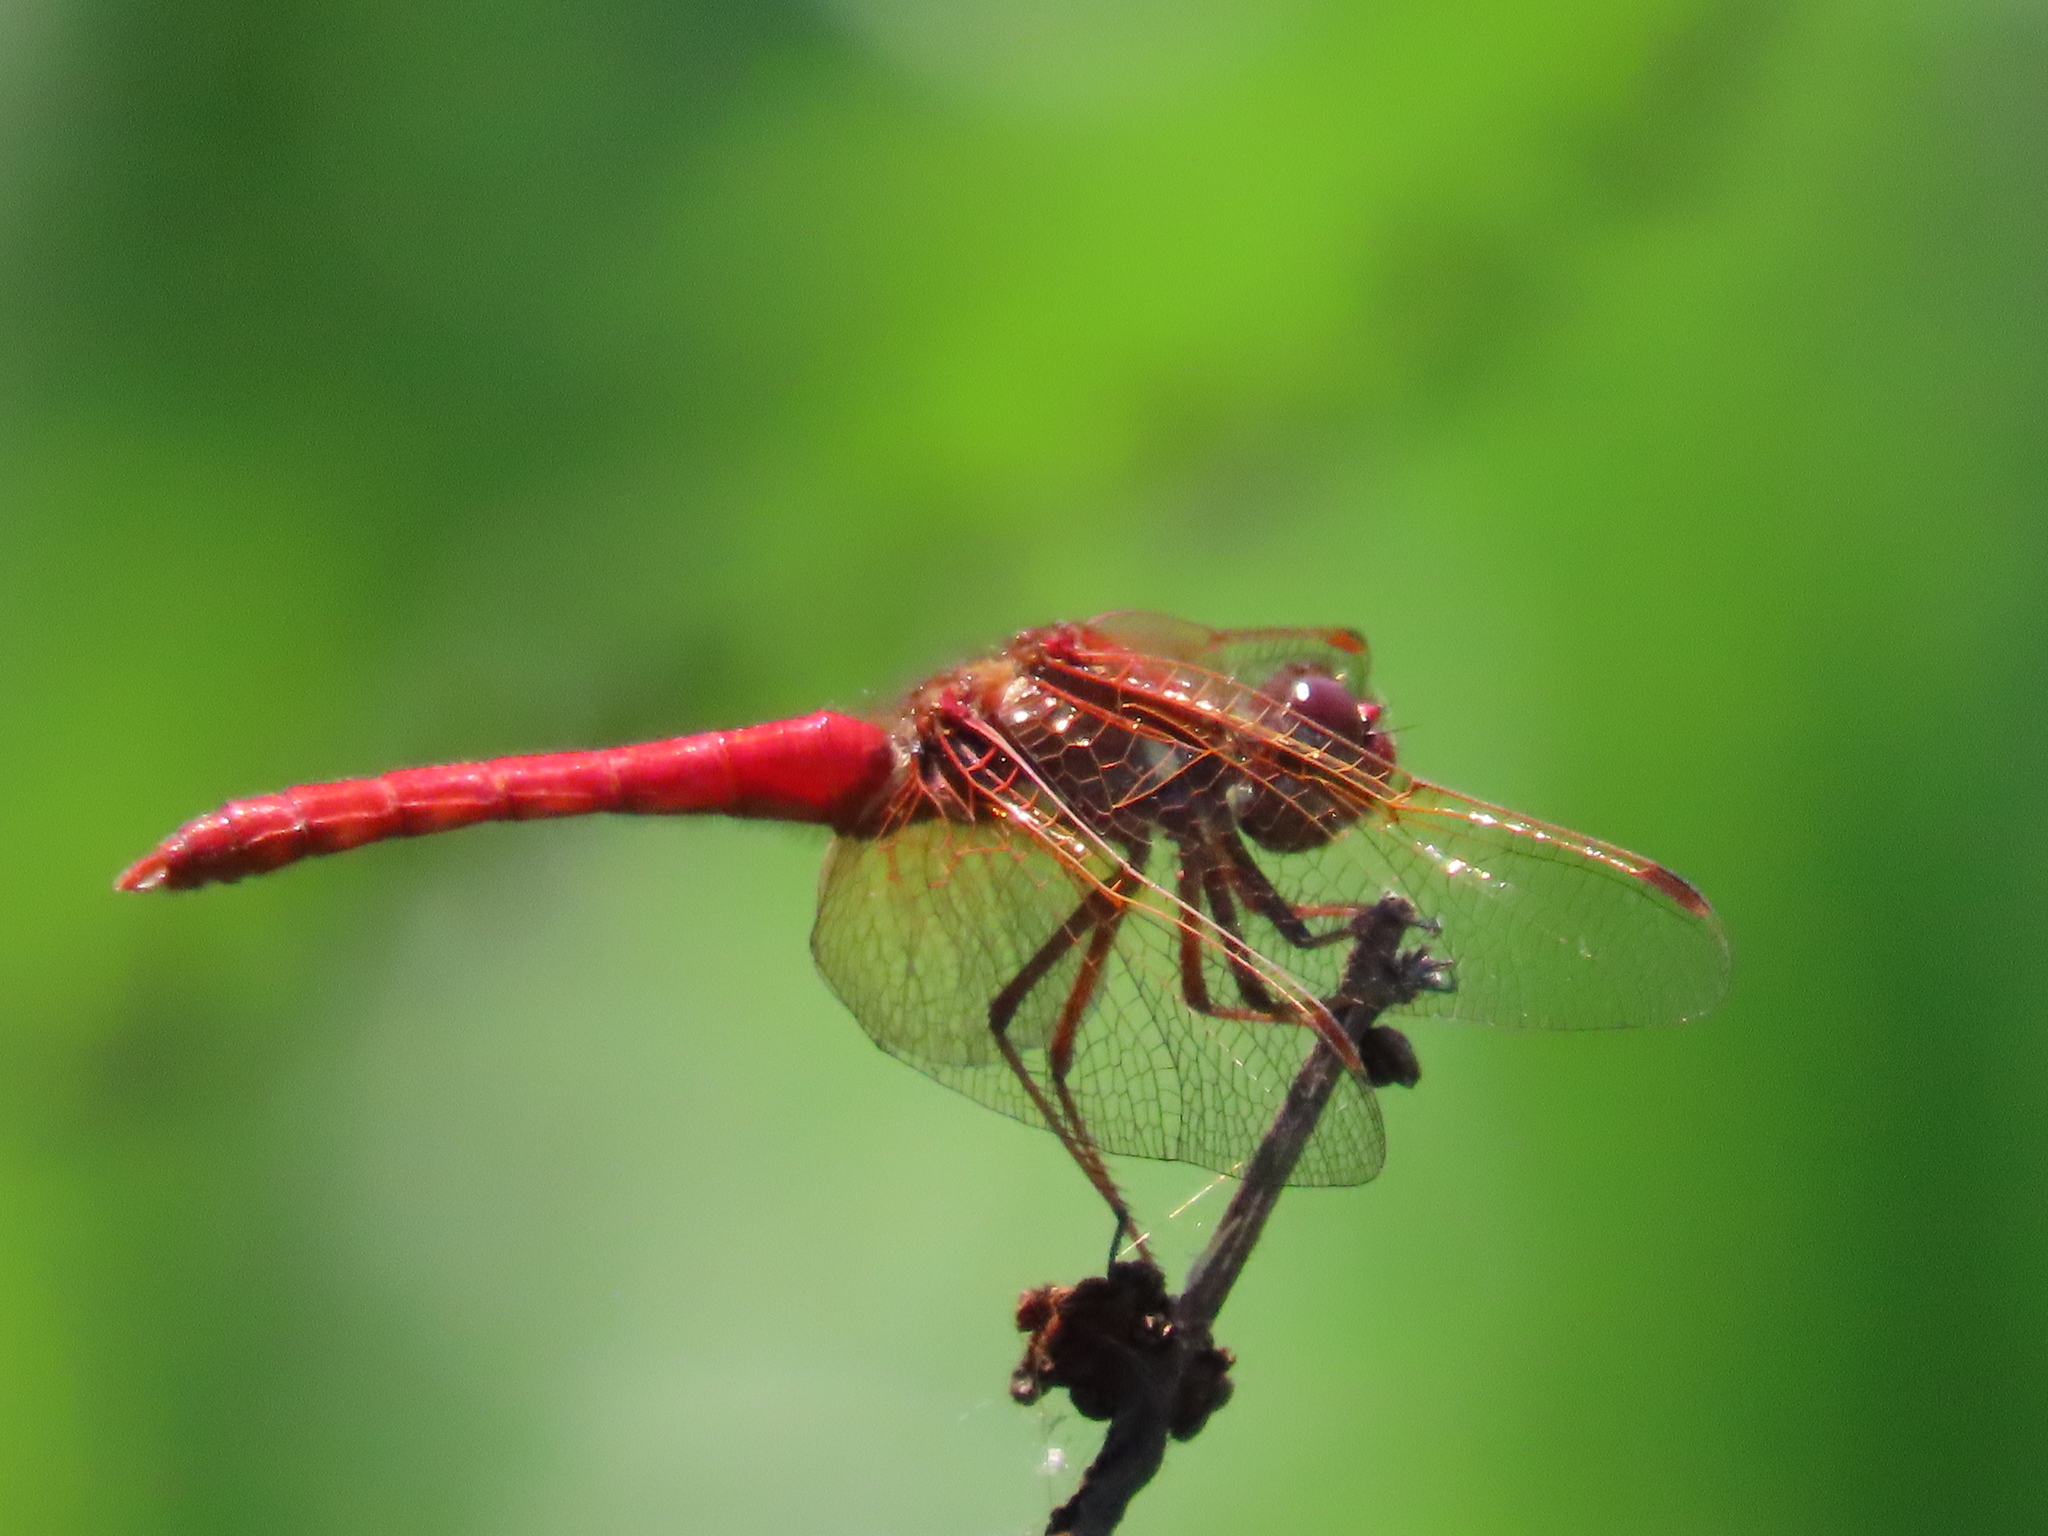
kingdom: Animalia
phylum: Arthropoda
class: Insecta
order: Odonata
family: Libellulidae
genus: Sympetrum
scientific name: Sympetrum illotum
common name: Cardinal meadowhawk
